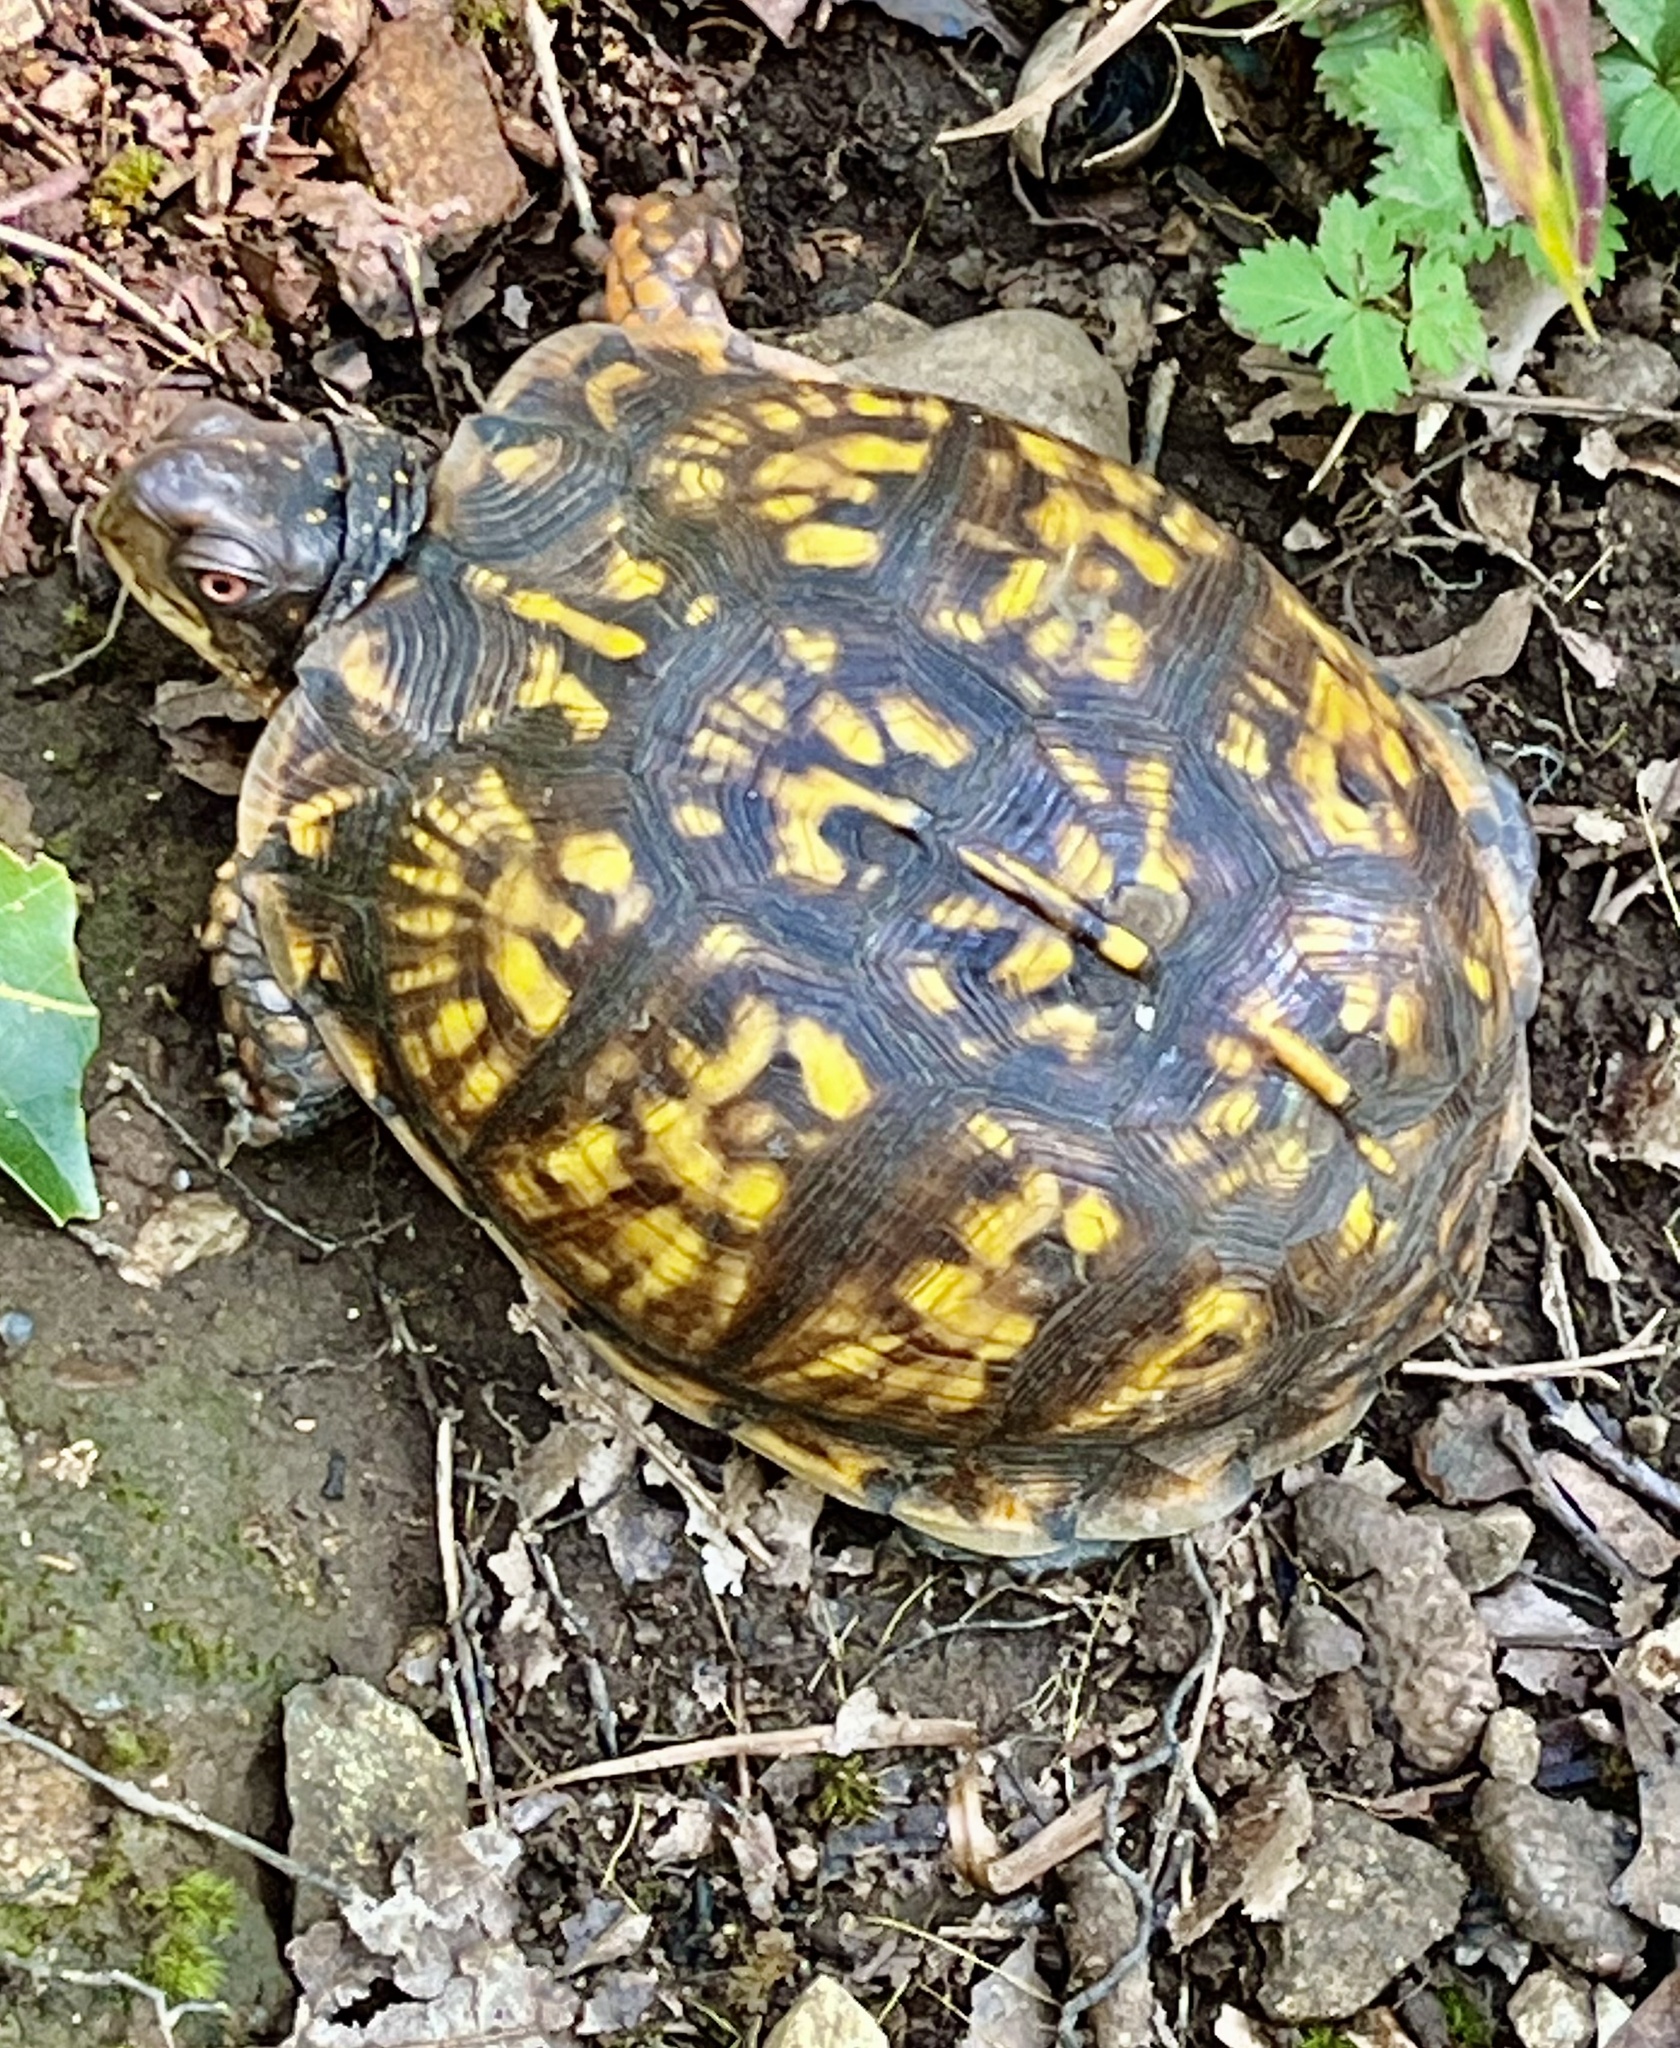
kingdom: Animalia
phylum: Chordata
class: Testudines
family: Emydidae
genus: Terrapene
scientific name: Terrapene carolina
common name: Common box turtle
